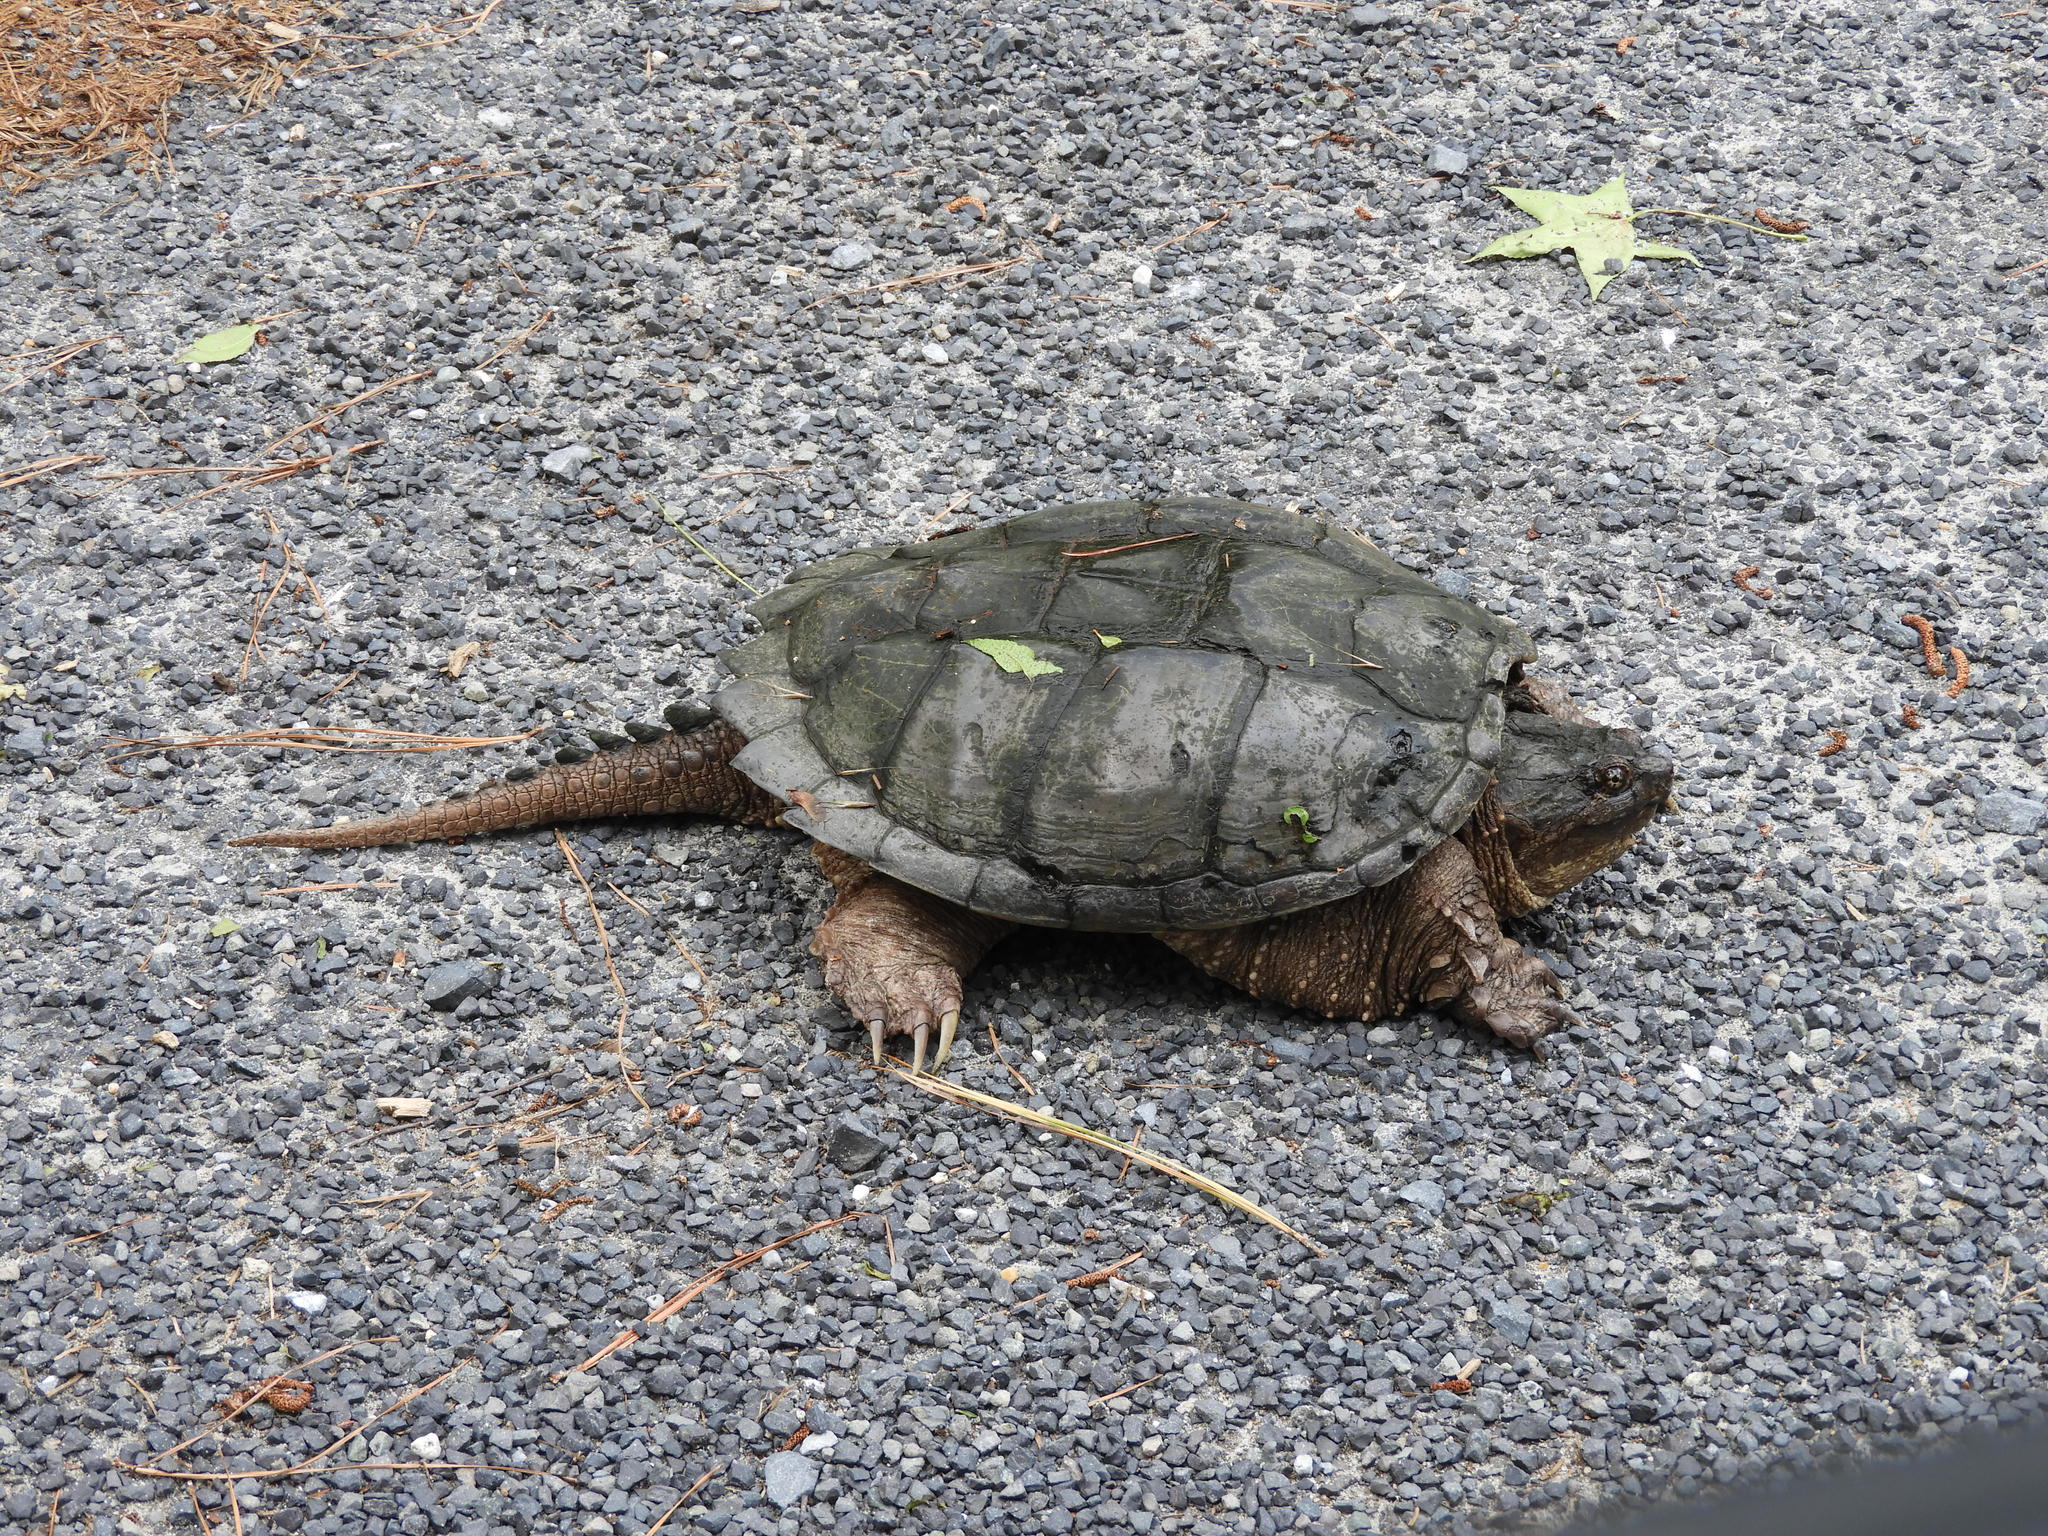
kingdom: Animalia
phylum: Chordata
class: Testudines
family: Chelydridae
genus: Chelydra
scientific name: Chelydra serpentina
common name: Common snapping turtle
